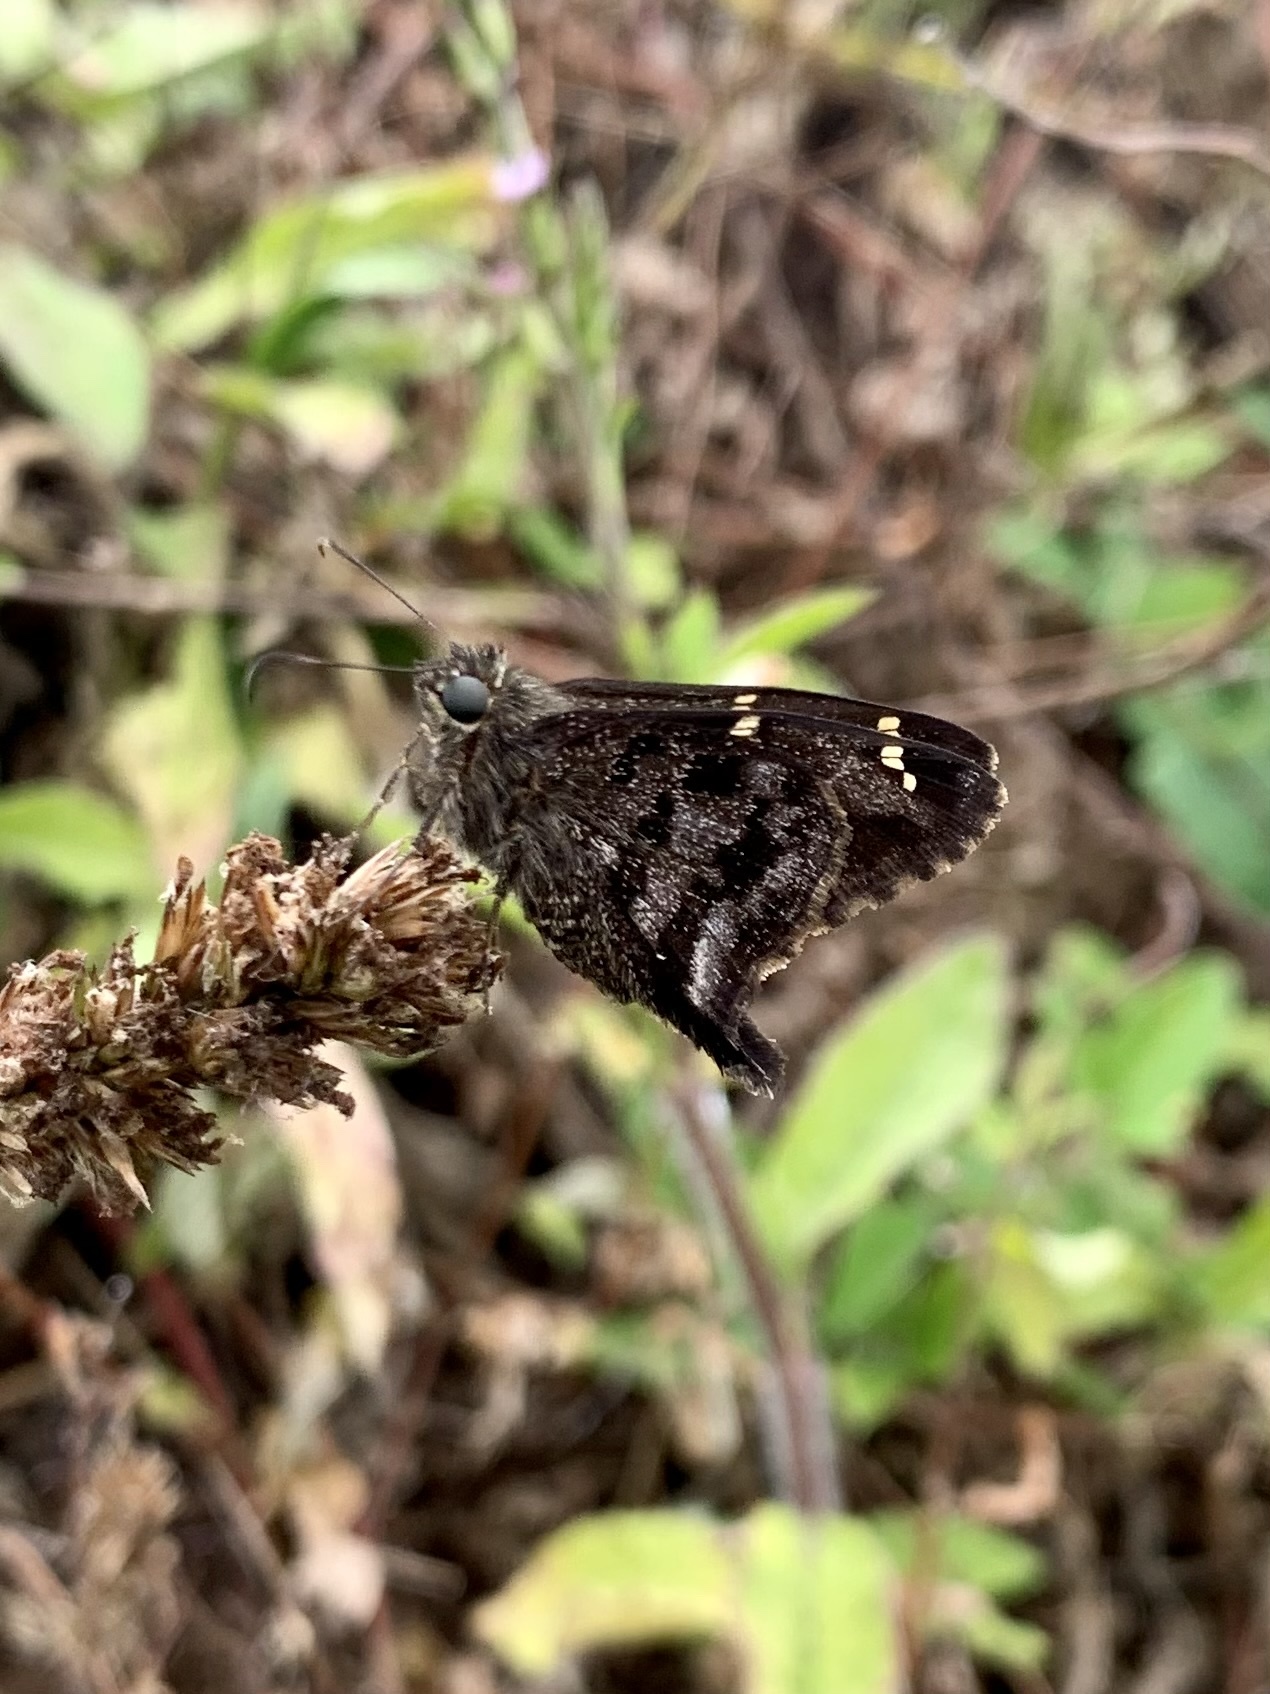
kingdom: Animalia
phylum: Arthropoda
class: Insecta
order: Lepidoptera
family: Hesperiidae
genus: Thorybes
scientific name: Thorybes
